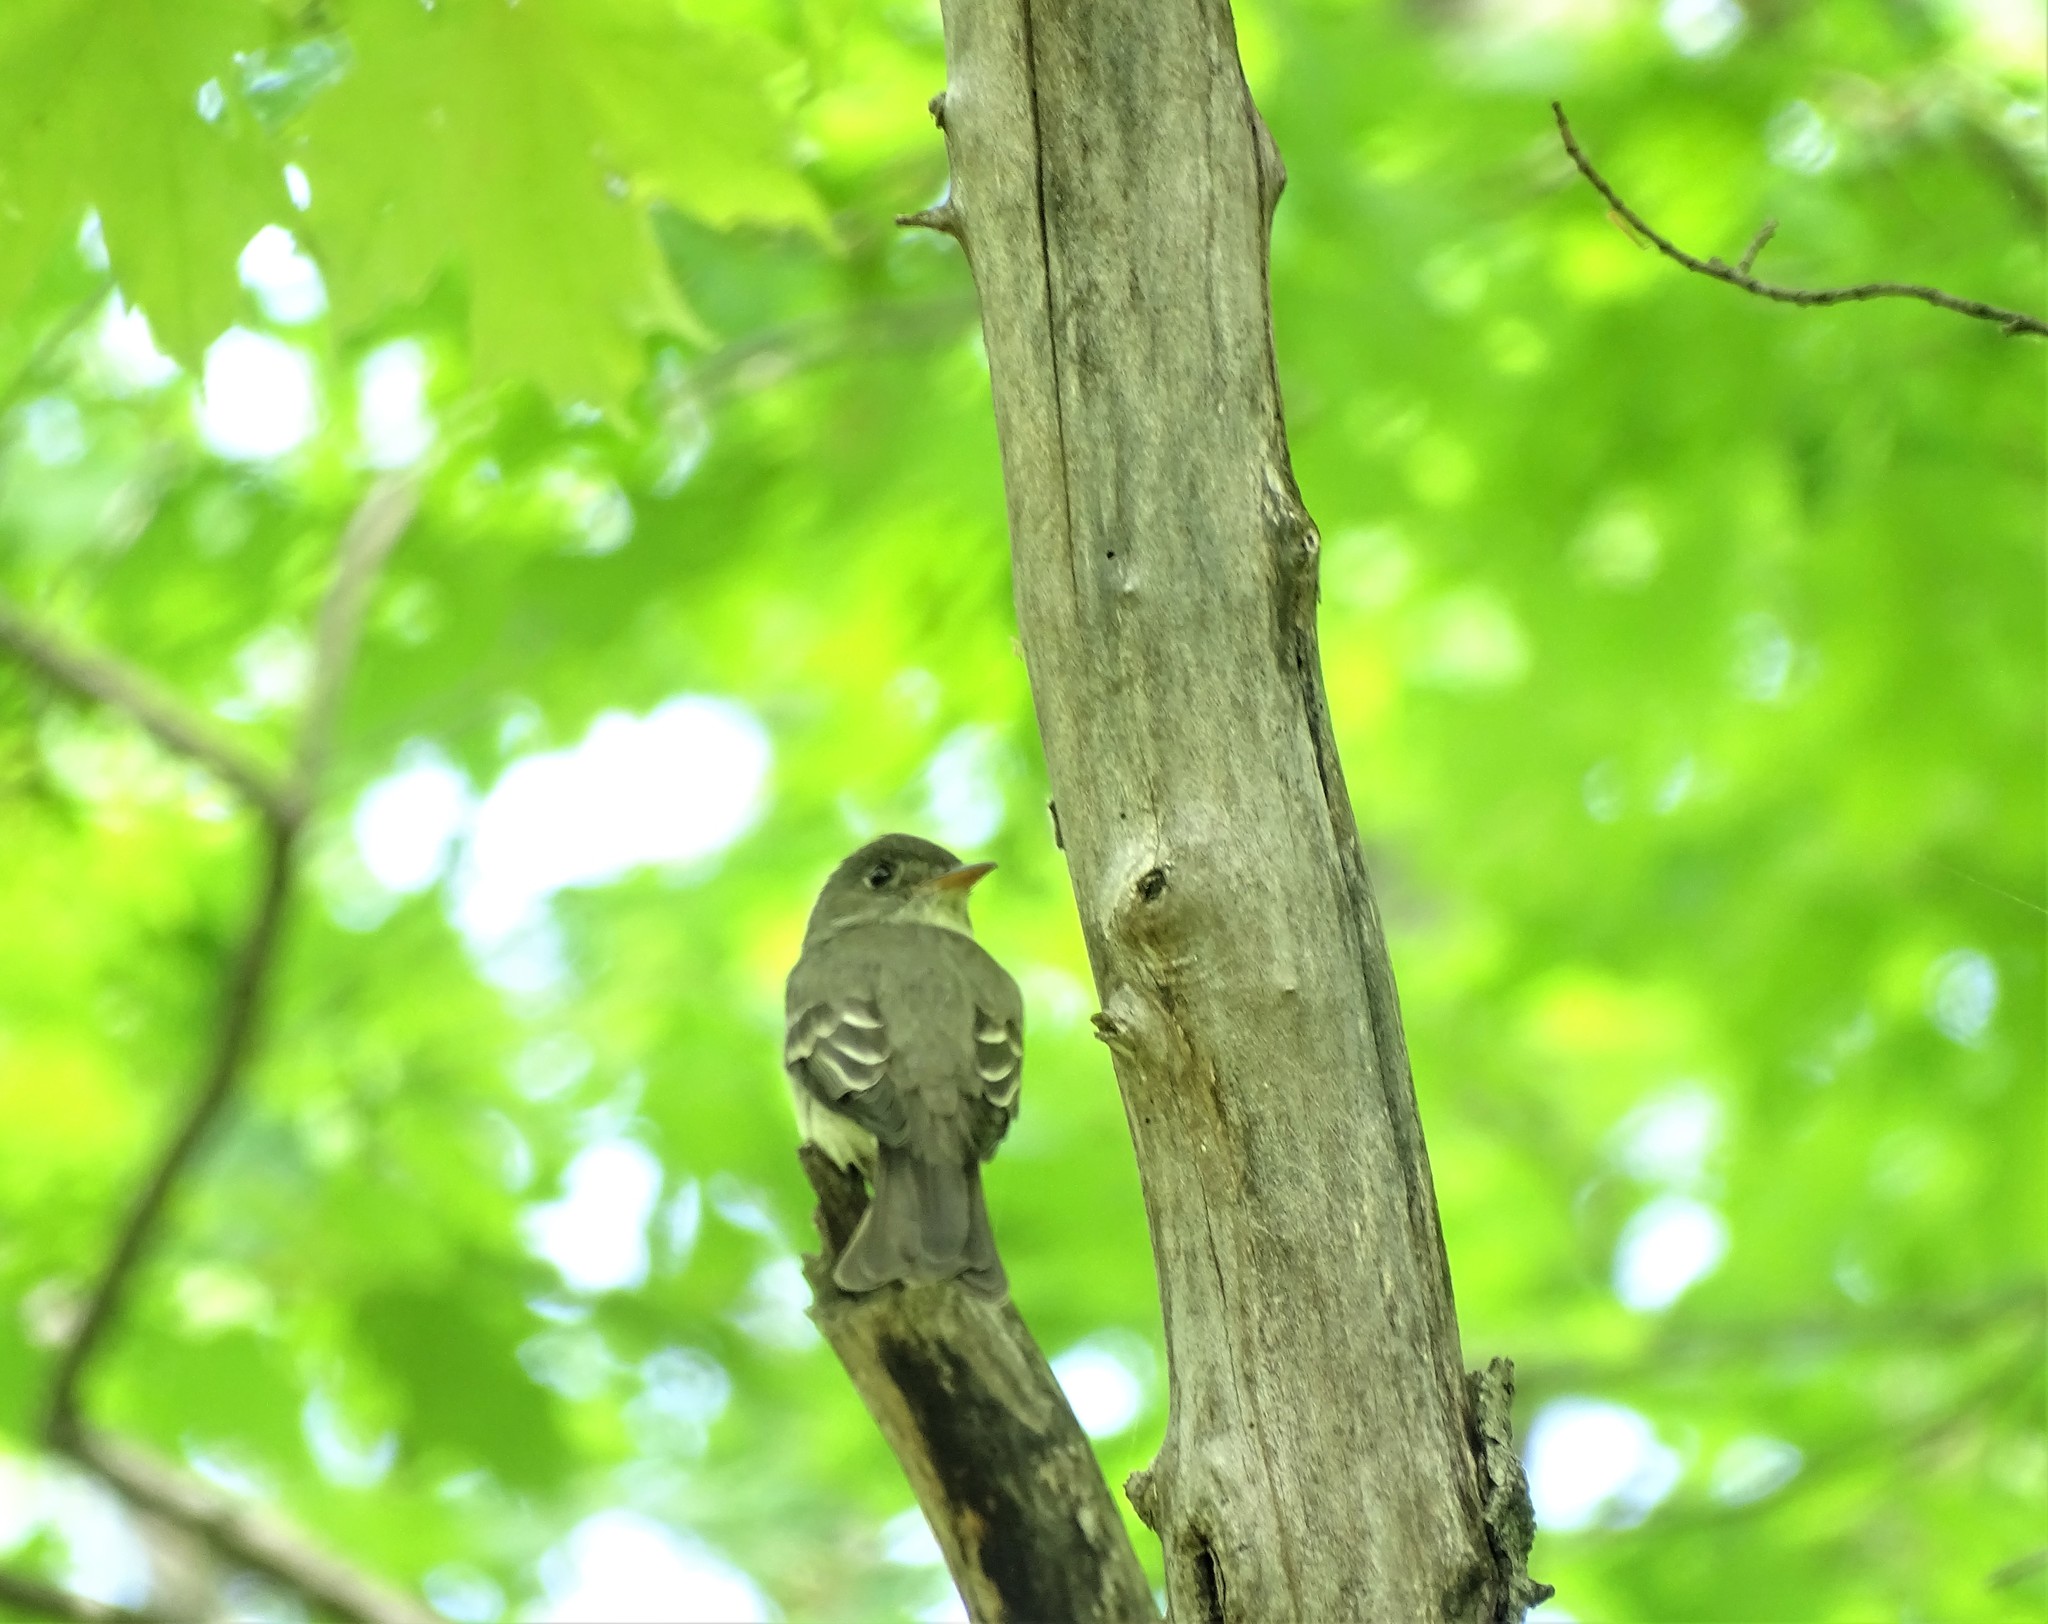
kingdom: Animalia
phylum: Chordata
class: Aves
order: Passeriformes
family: Tyrannidae
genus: Contopus
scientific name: Contopus virens
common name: Eastern wood-pewee
